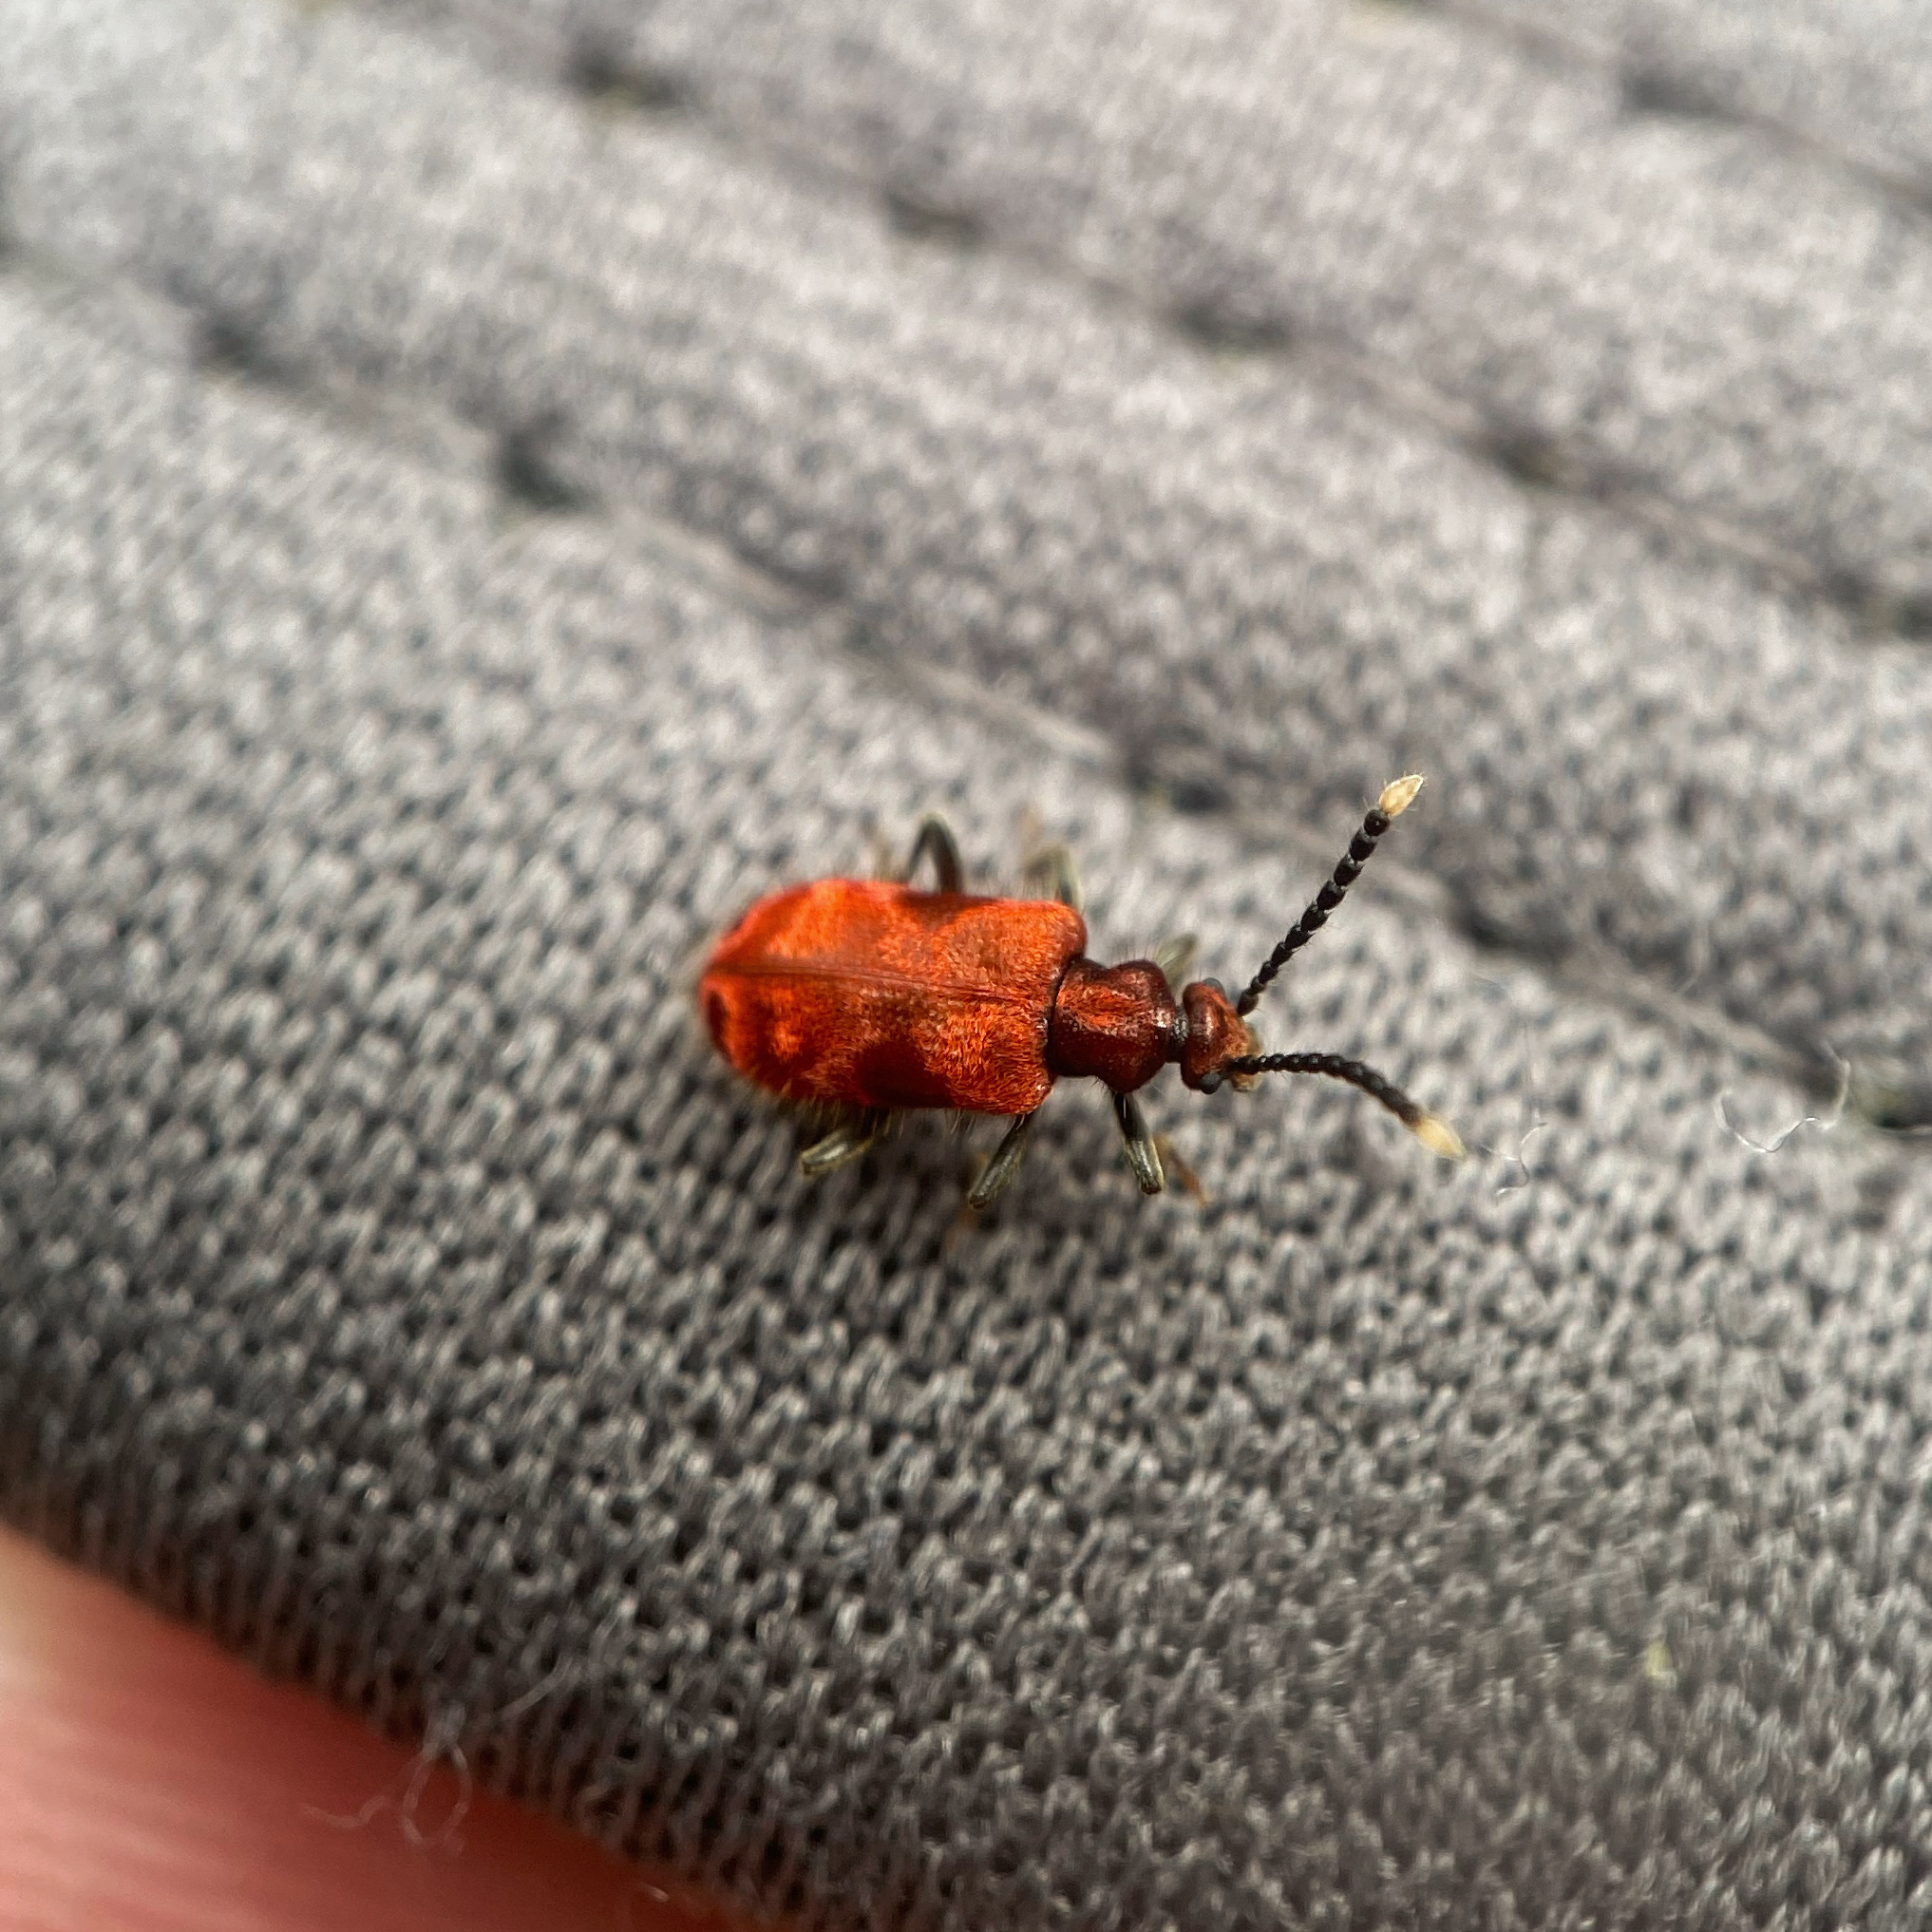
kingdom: Animalia
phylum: Arthropoda
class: Insecta
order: Coleoptera
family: Anthicidae
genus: Lemodes
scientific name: Lemodes
